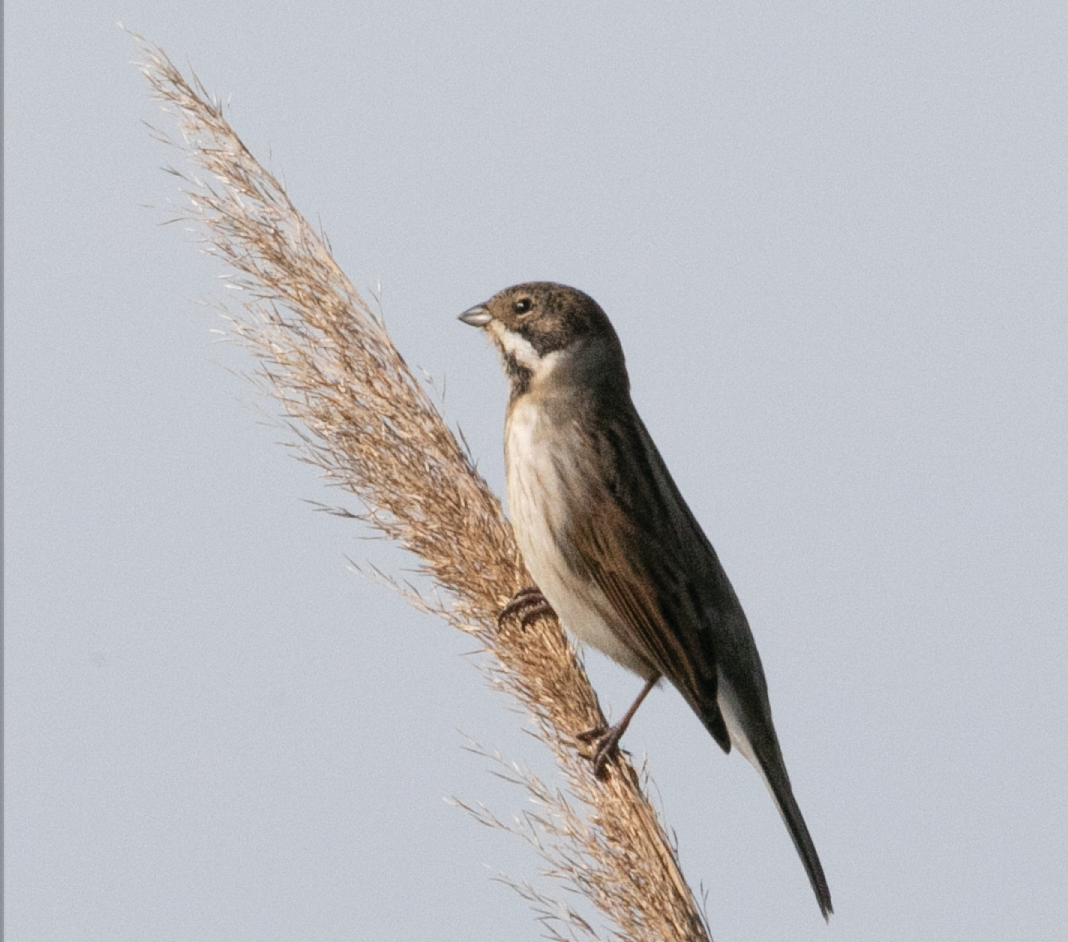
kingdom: Animalia
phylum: Chordata
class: Aves
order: Passeriformes
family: Emberizidae
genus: Emberiza
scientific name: Emberiza schoeniclus
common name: Reed bunting
